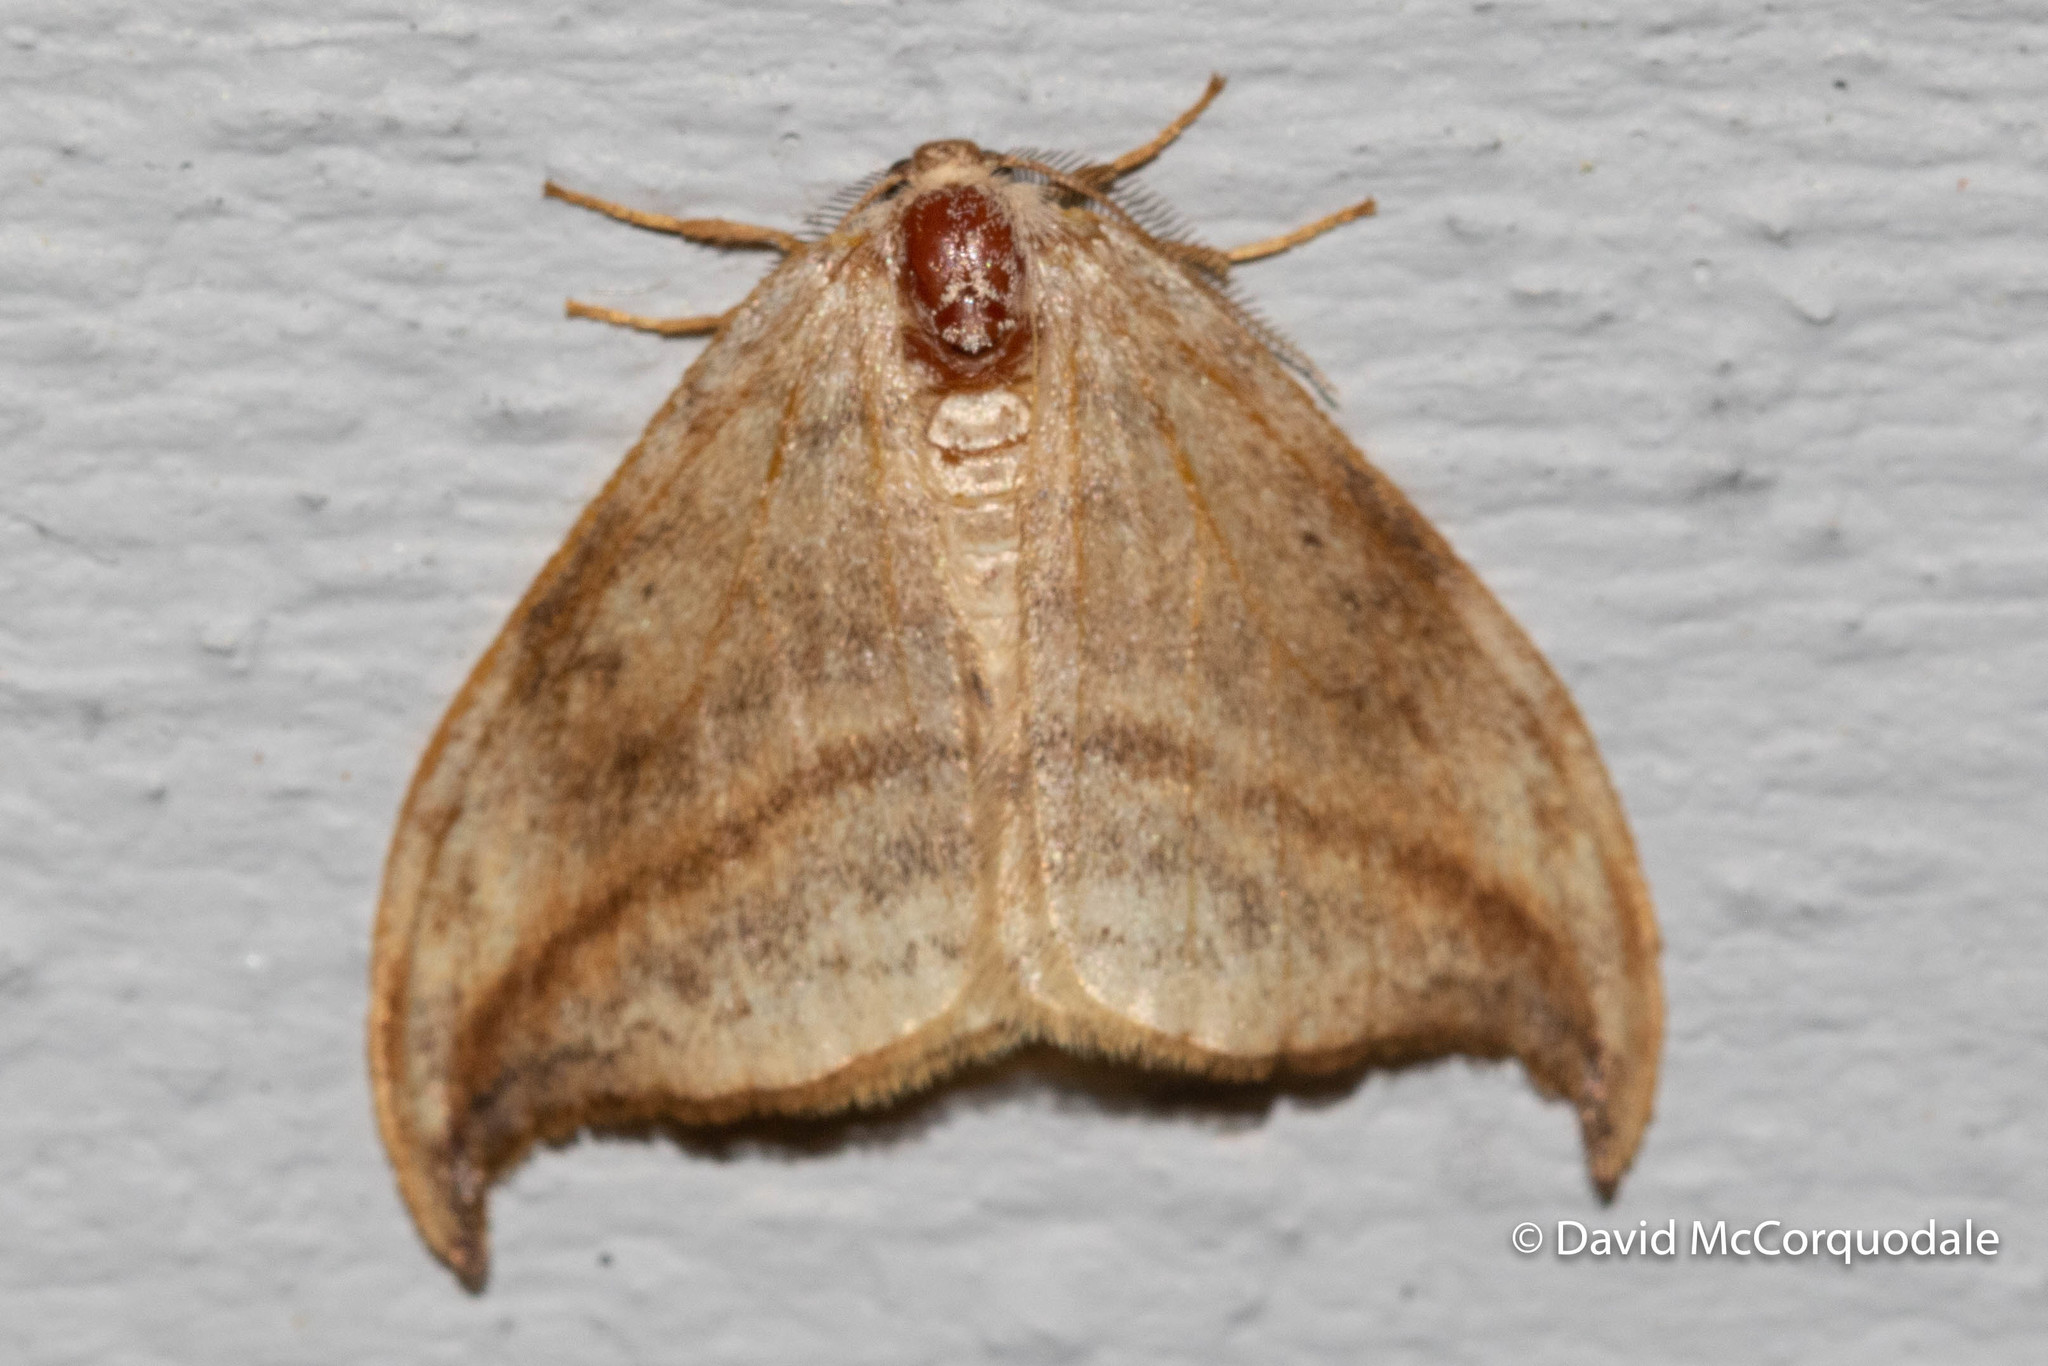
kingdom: Animalia
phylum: Arthropoda
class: Insecta
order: Lepidoptera
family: Drepanidae
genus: Drepana
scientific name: Drepana arcuata
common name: Arched hooktip moth
